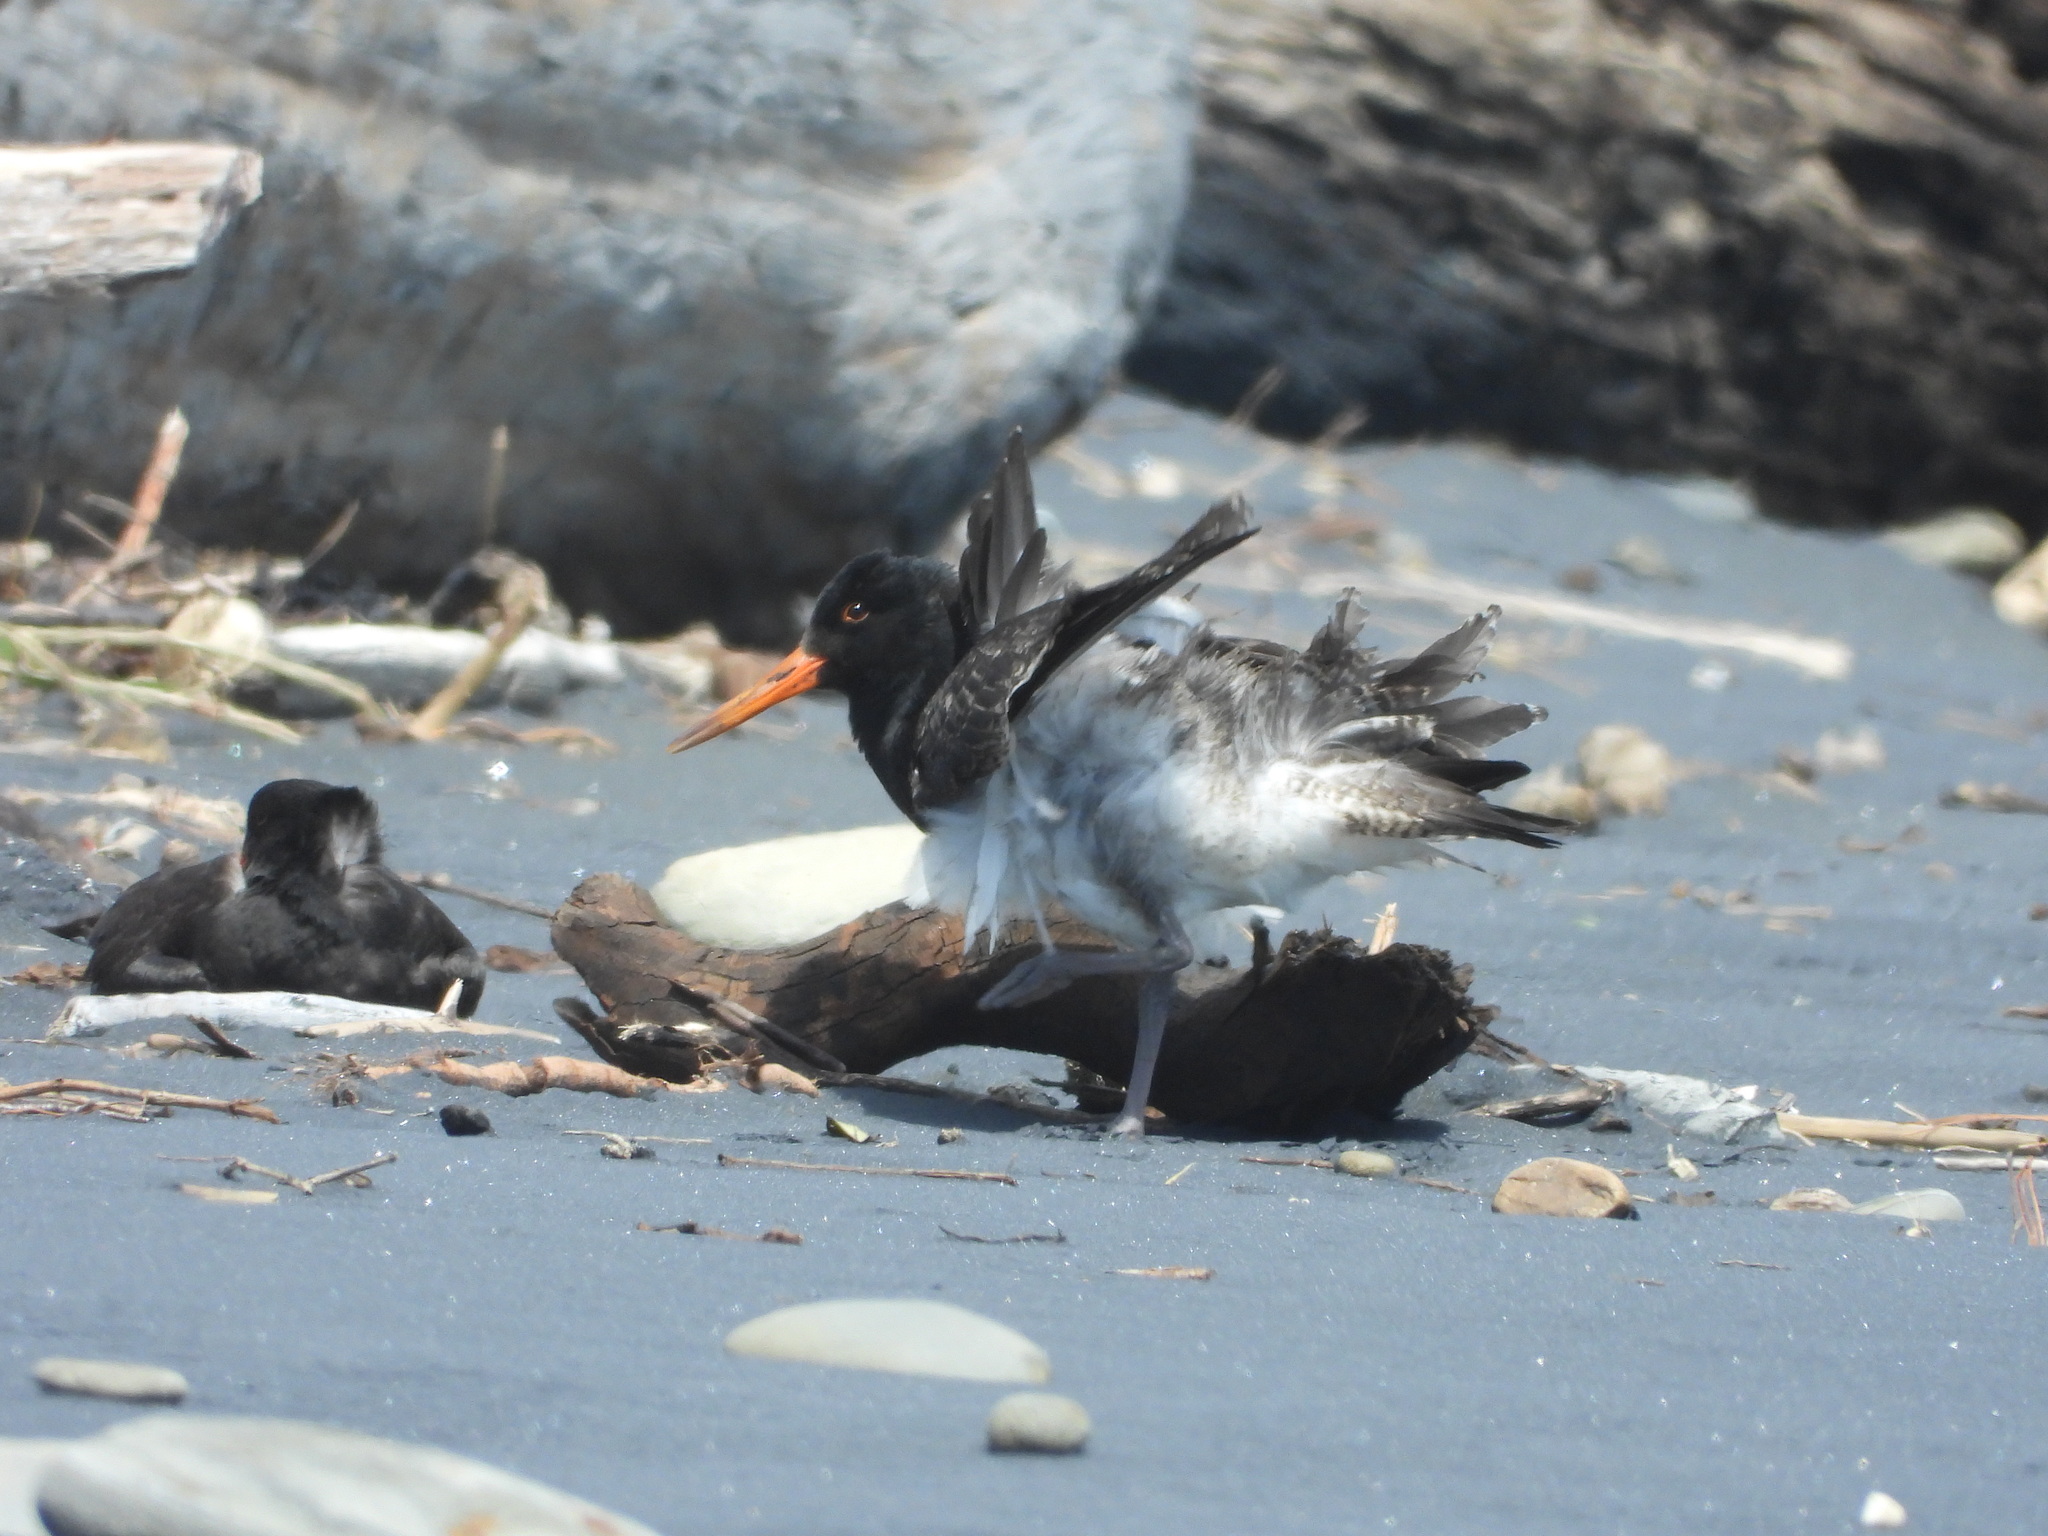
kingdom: Animalia
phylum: Chordata
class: Aves
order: Charadriiformes
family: Haematopodidae
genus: Haematopus
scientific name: Haematopus unicolor
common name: Variable oystercatcher
